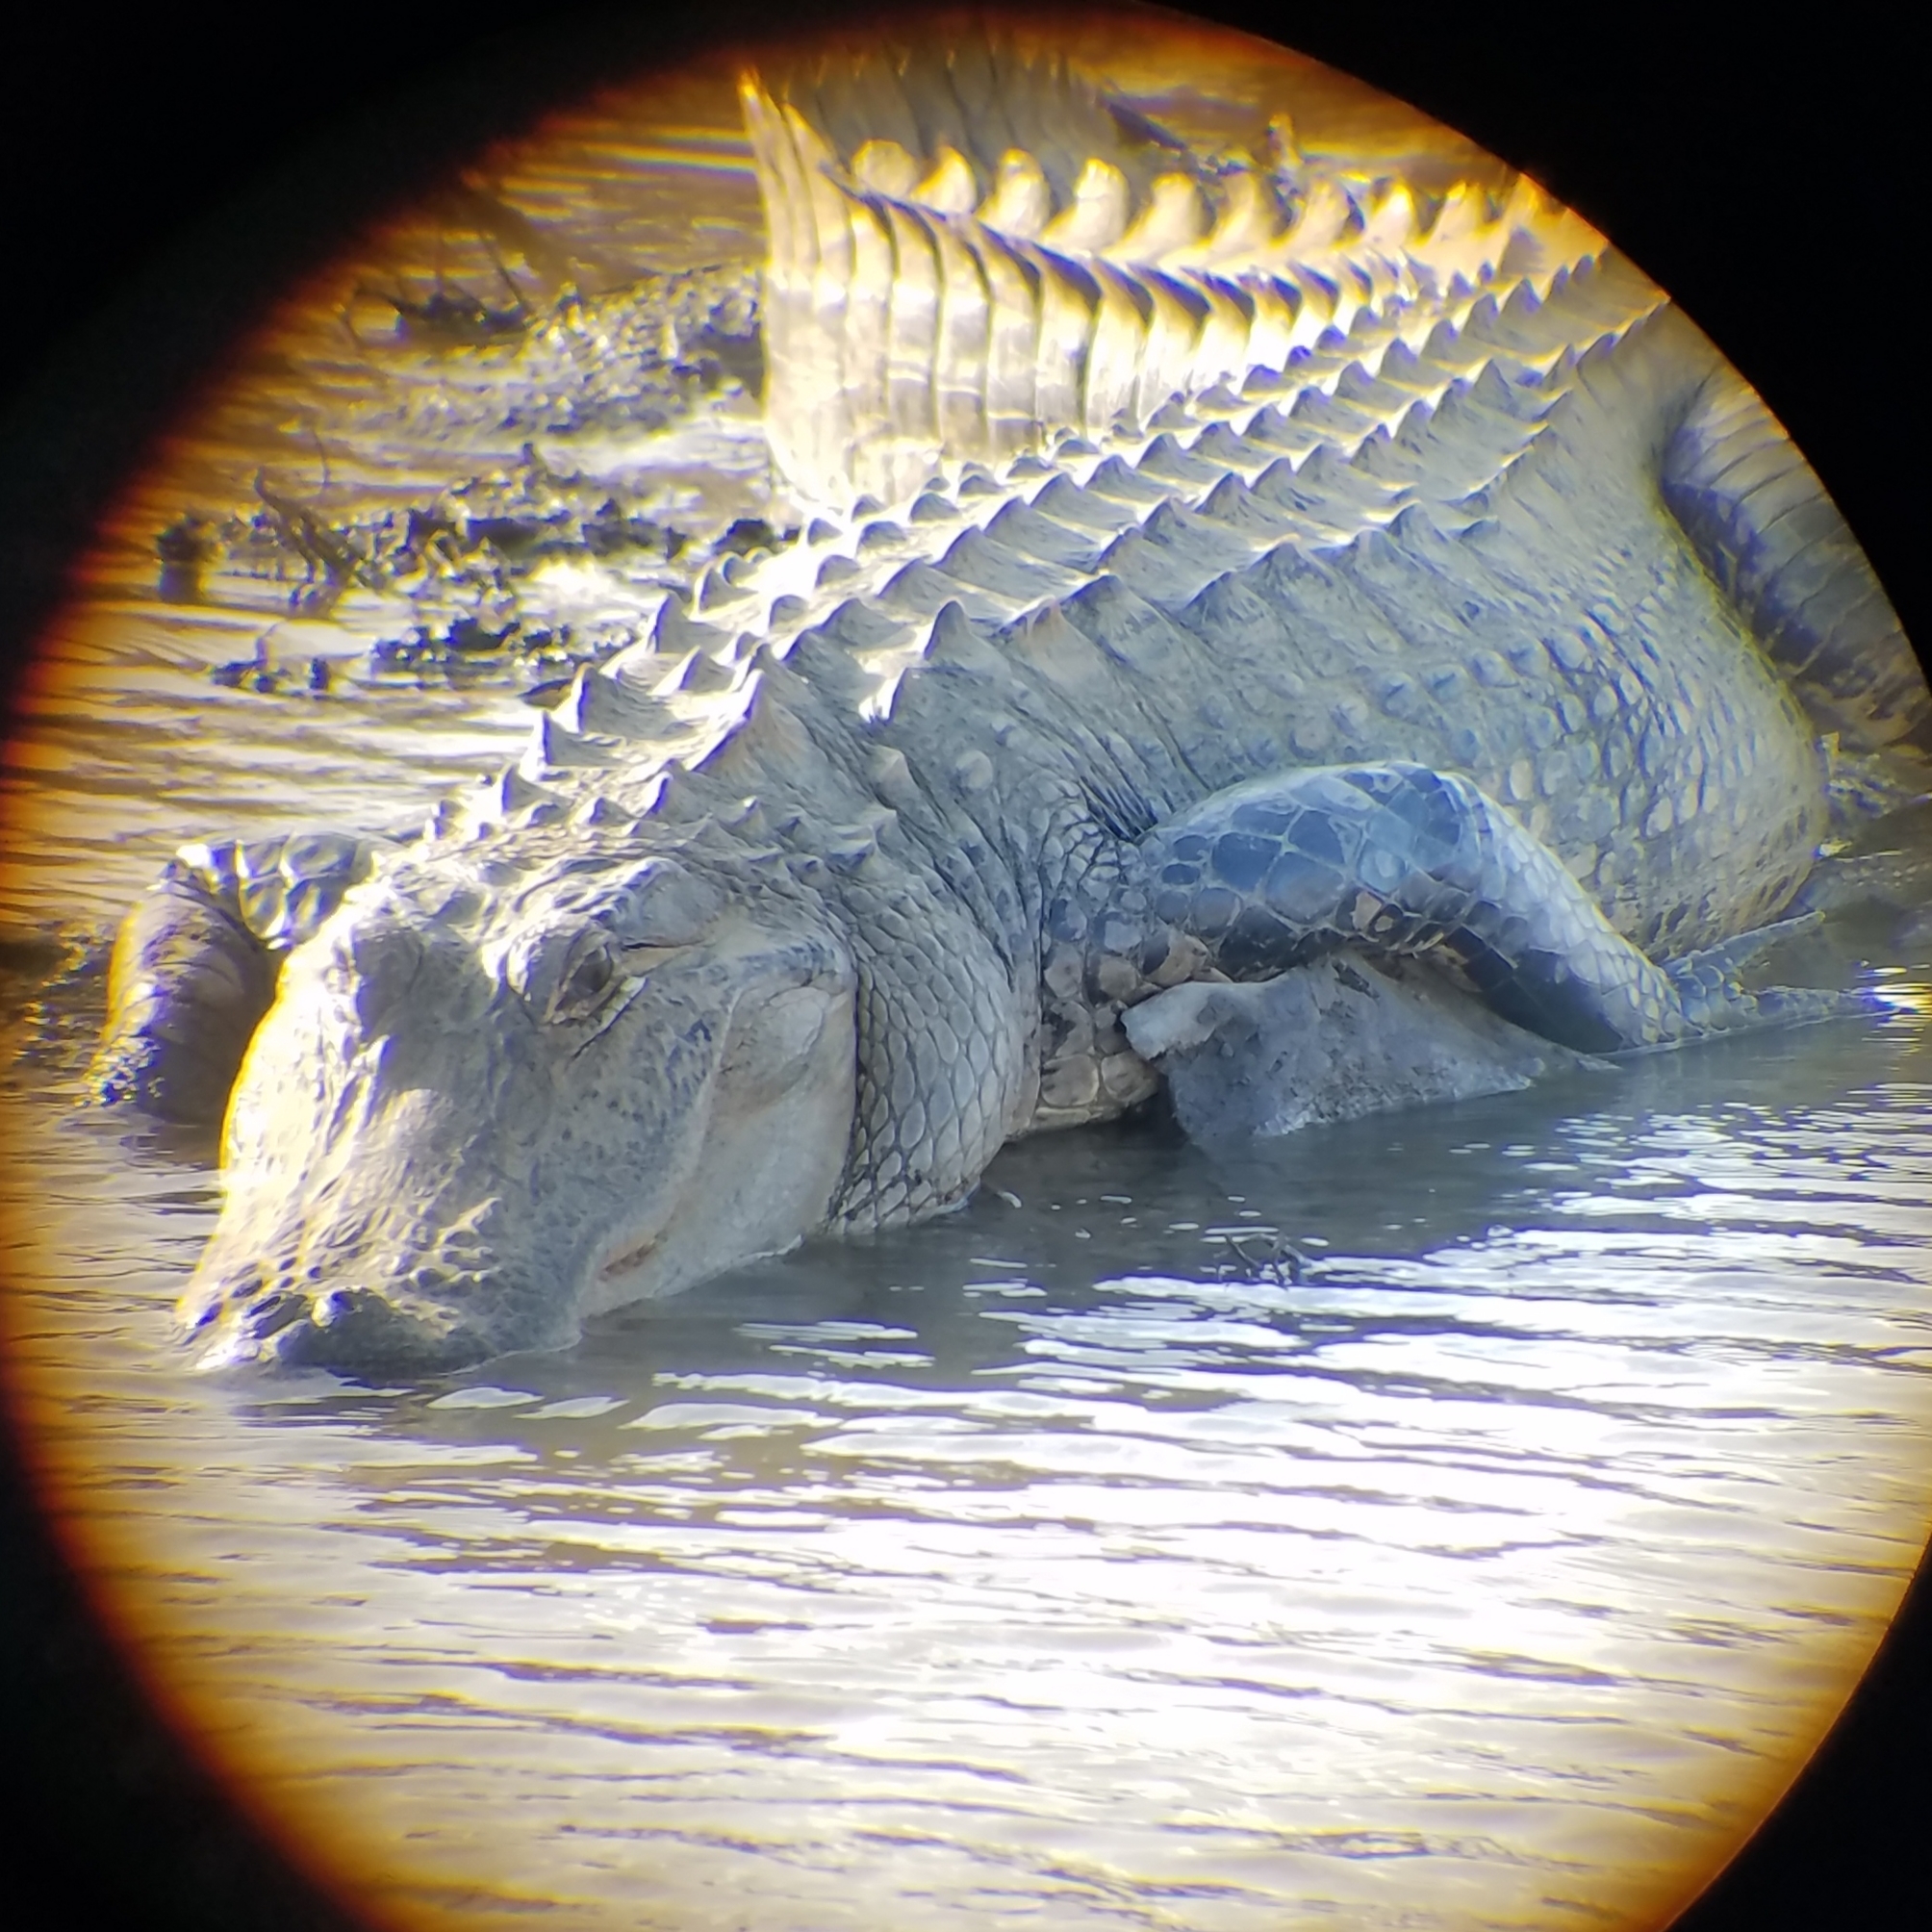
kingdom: Animalia
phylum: Chordata
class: Crocodylia
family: Alligatoridae
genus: Alligator
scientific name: Alligator mississippiensis
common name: American alligator
